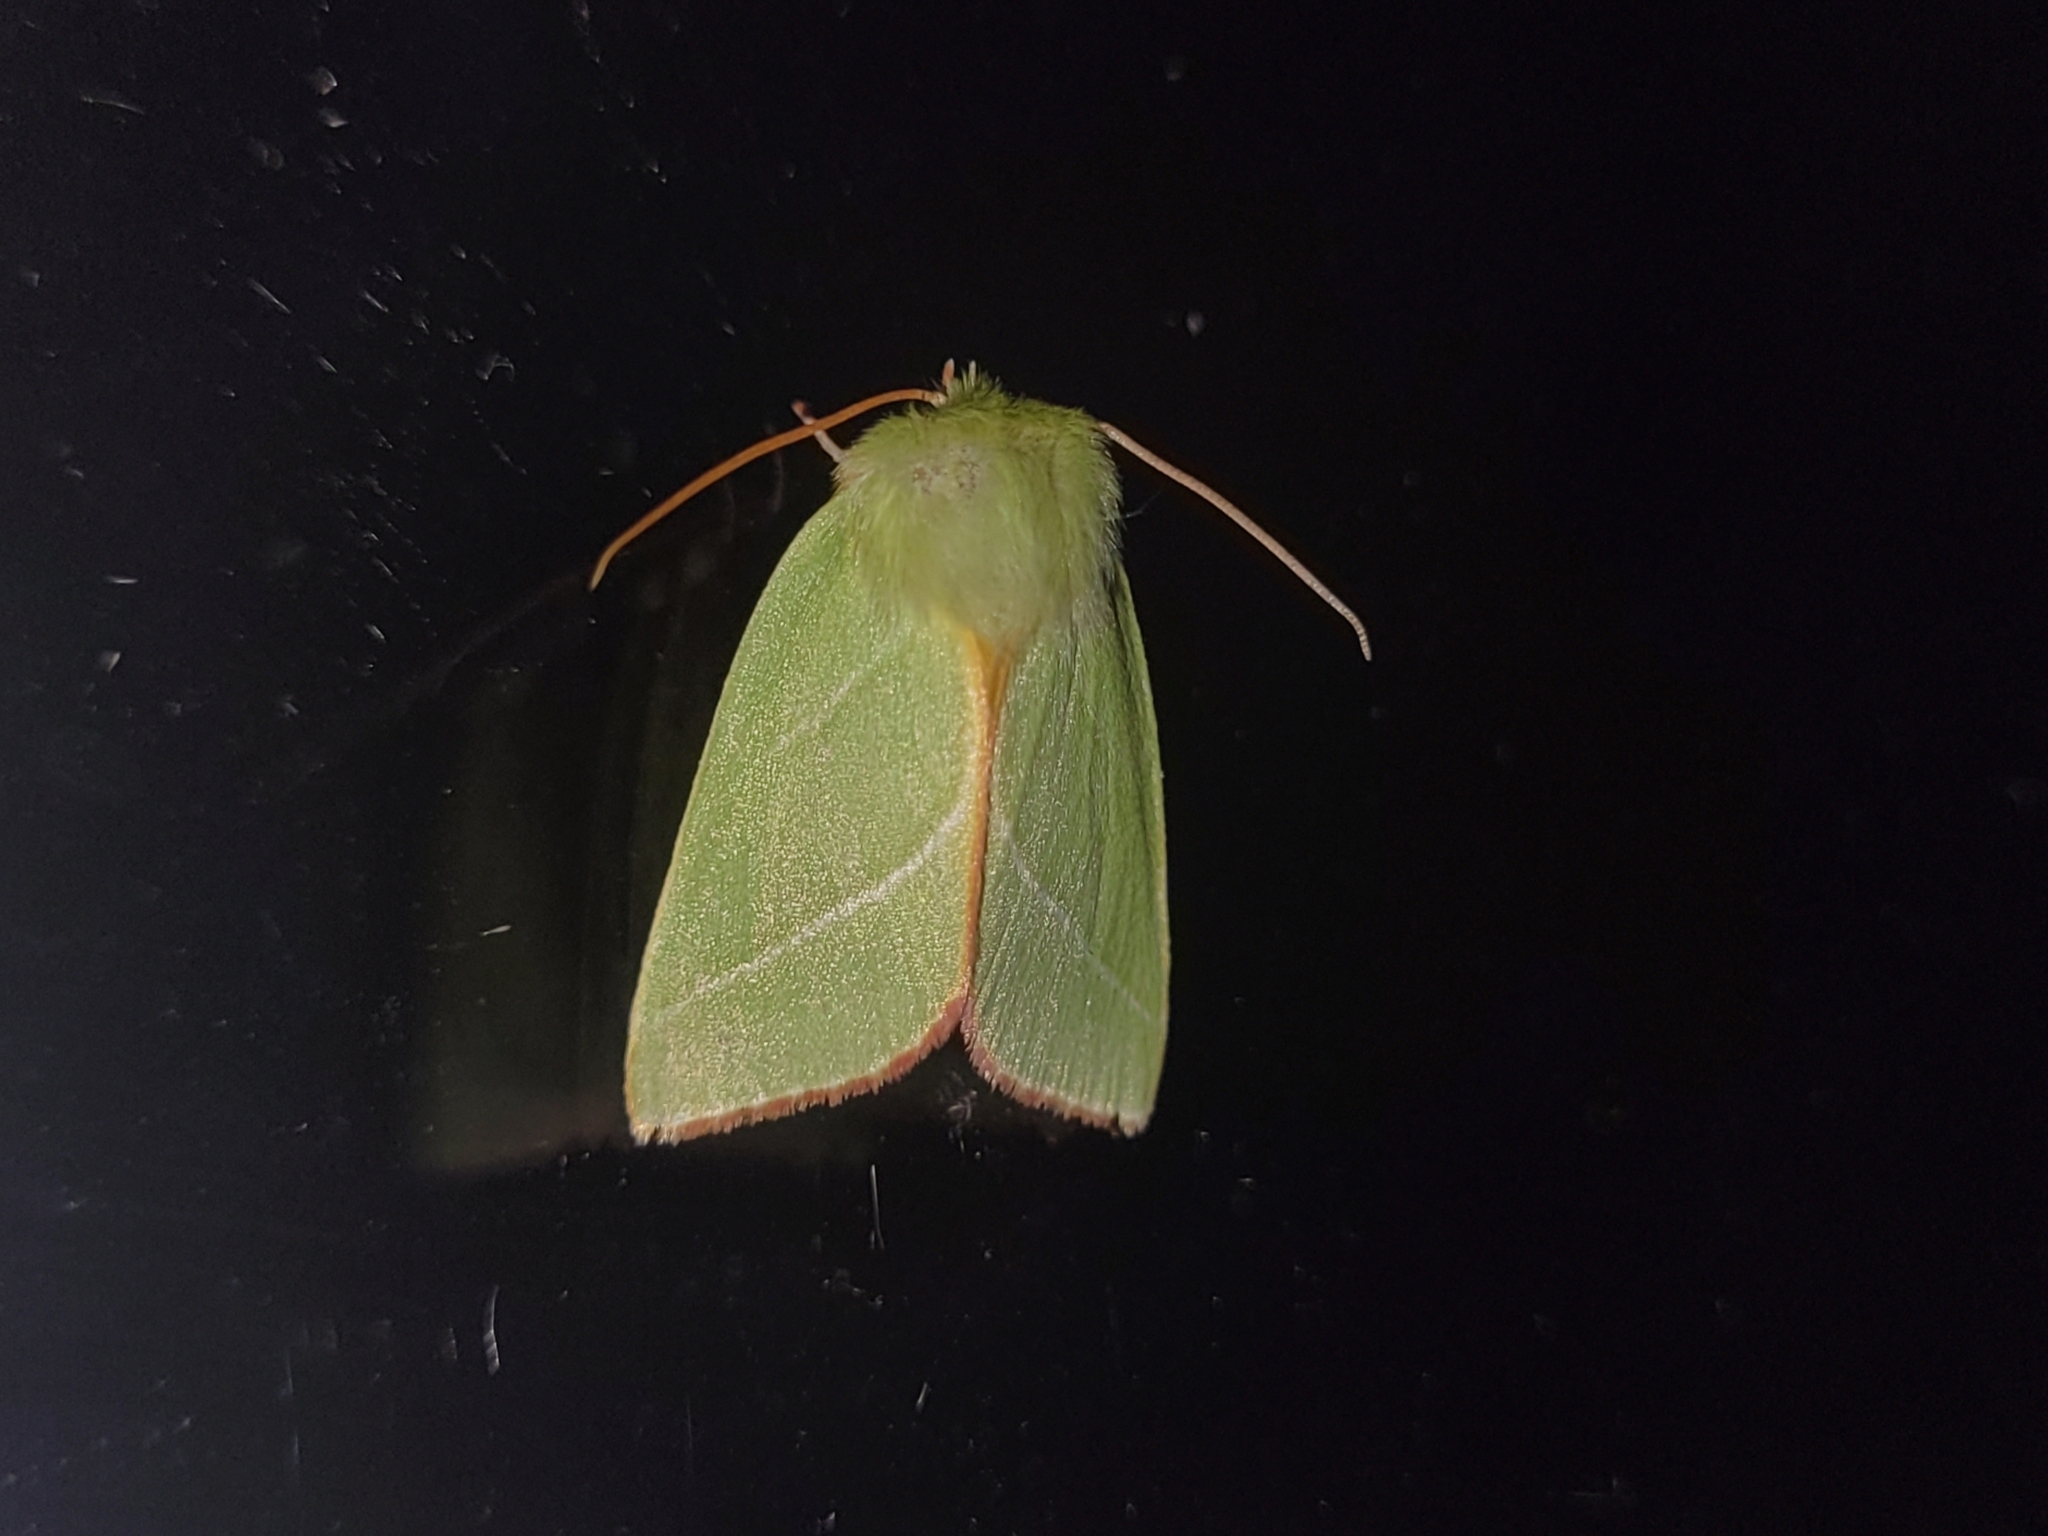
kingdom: Animalia
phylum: Arthropoda
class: Insecta
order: Lepidoptera
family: Nolidae
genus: Pseudoips
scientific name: Pseudoips prasinana
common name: Green silver-lines
